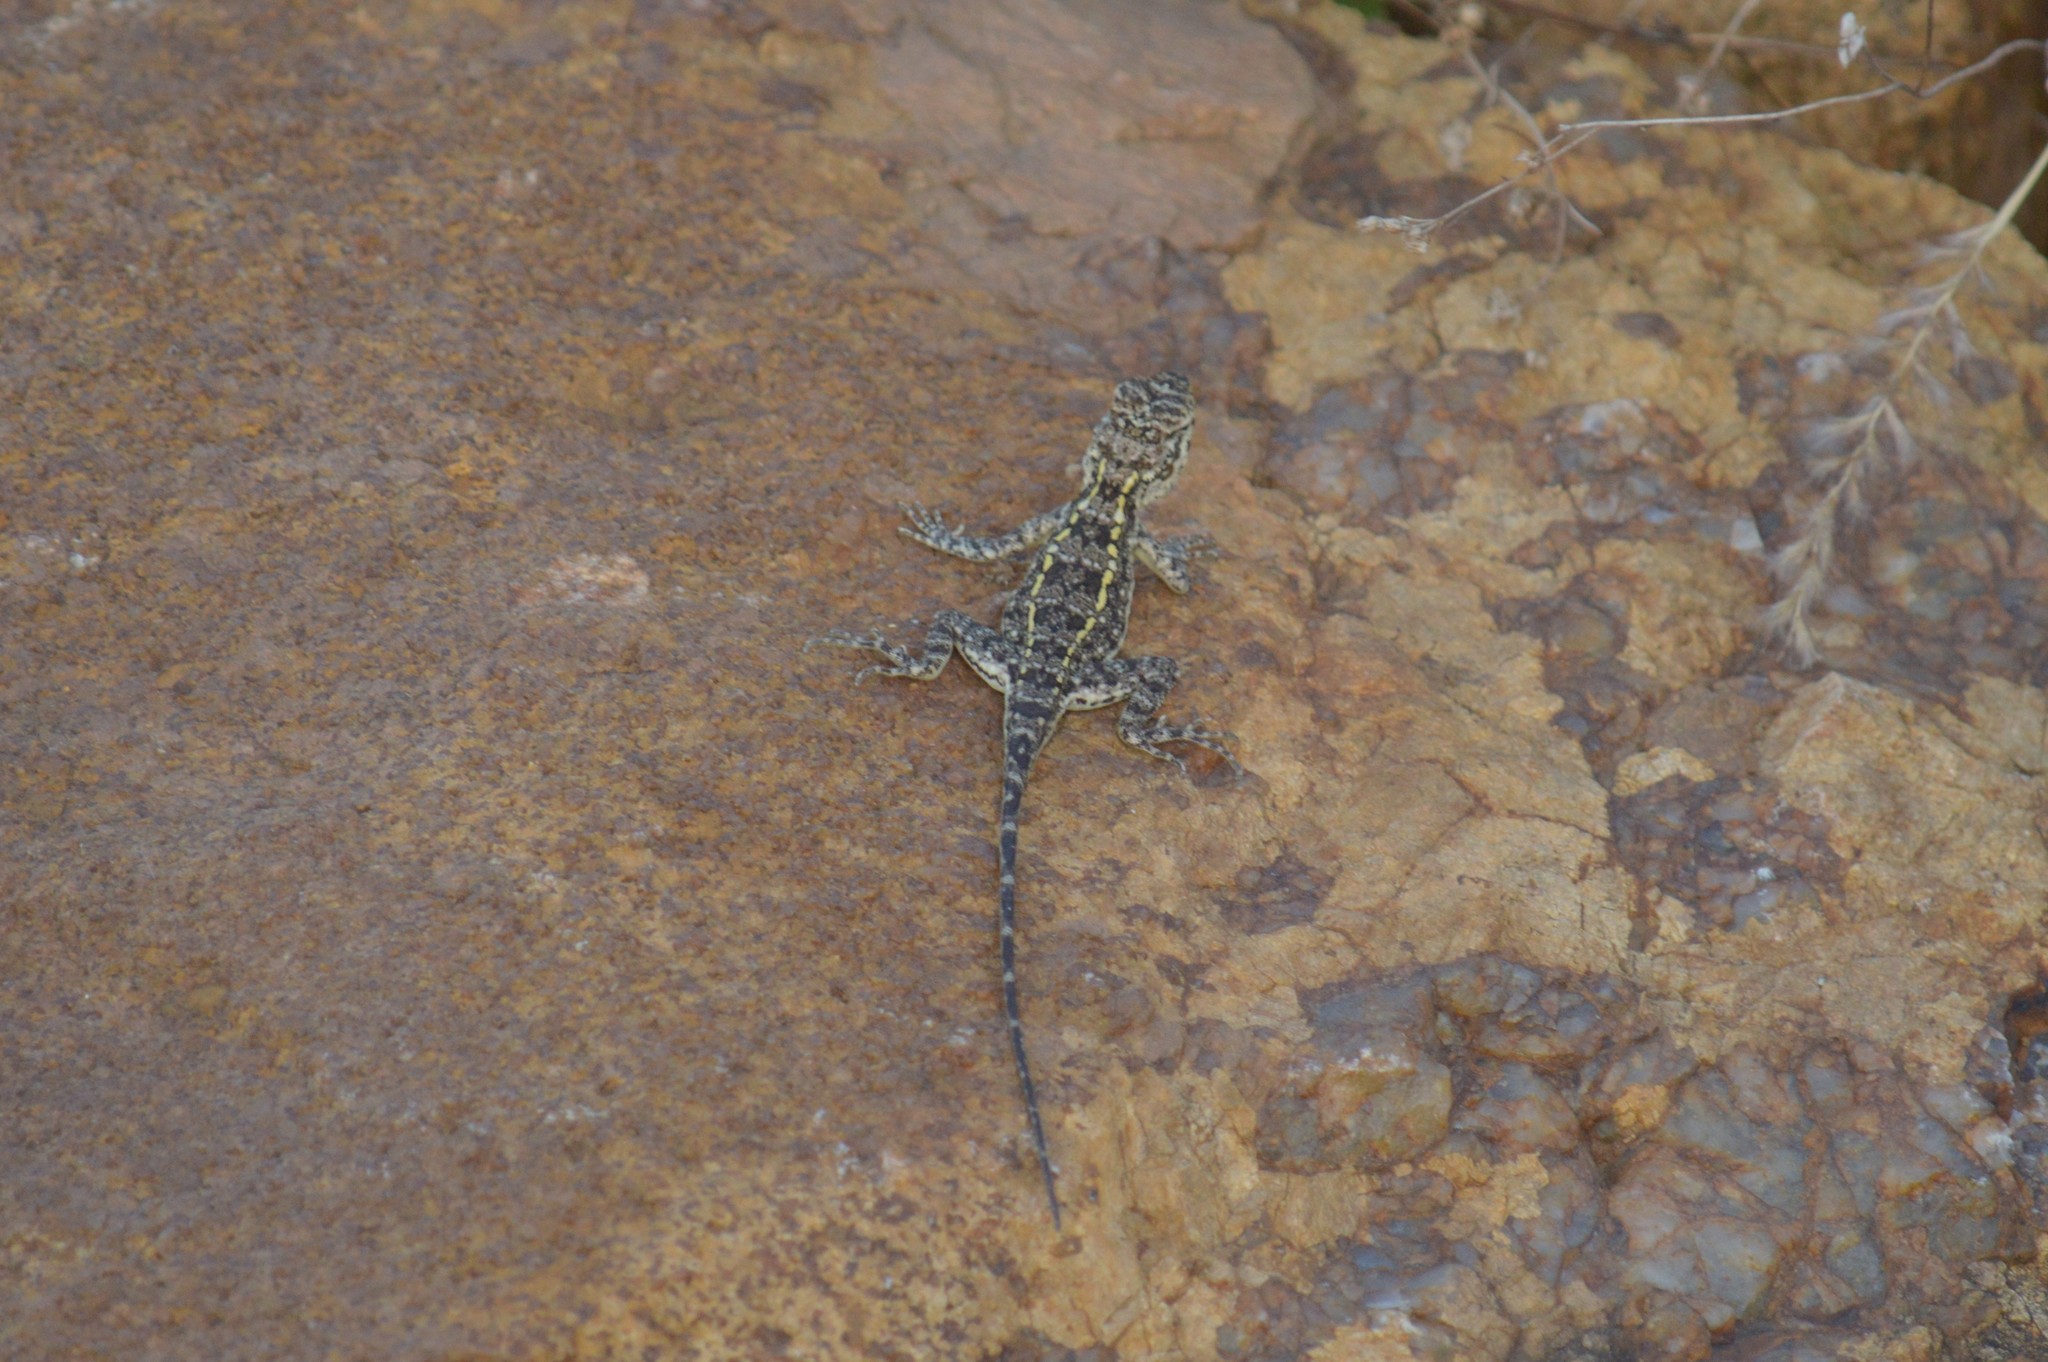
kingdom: Animalia
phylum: Chordata
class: Squamata
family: Agamidae
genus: Psammophilus
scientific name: Psammophilus dorsalis
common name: South indian rock agama
